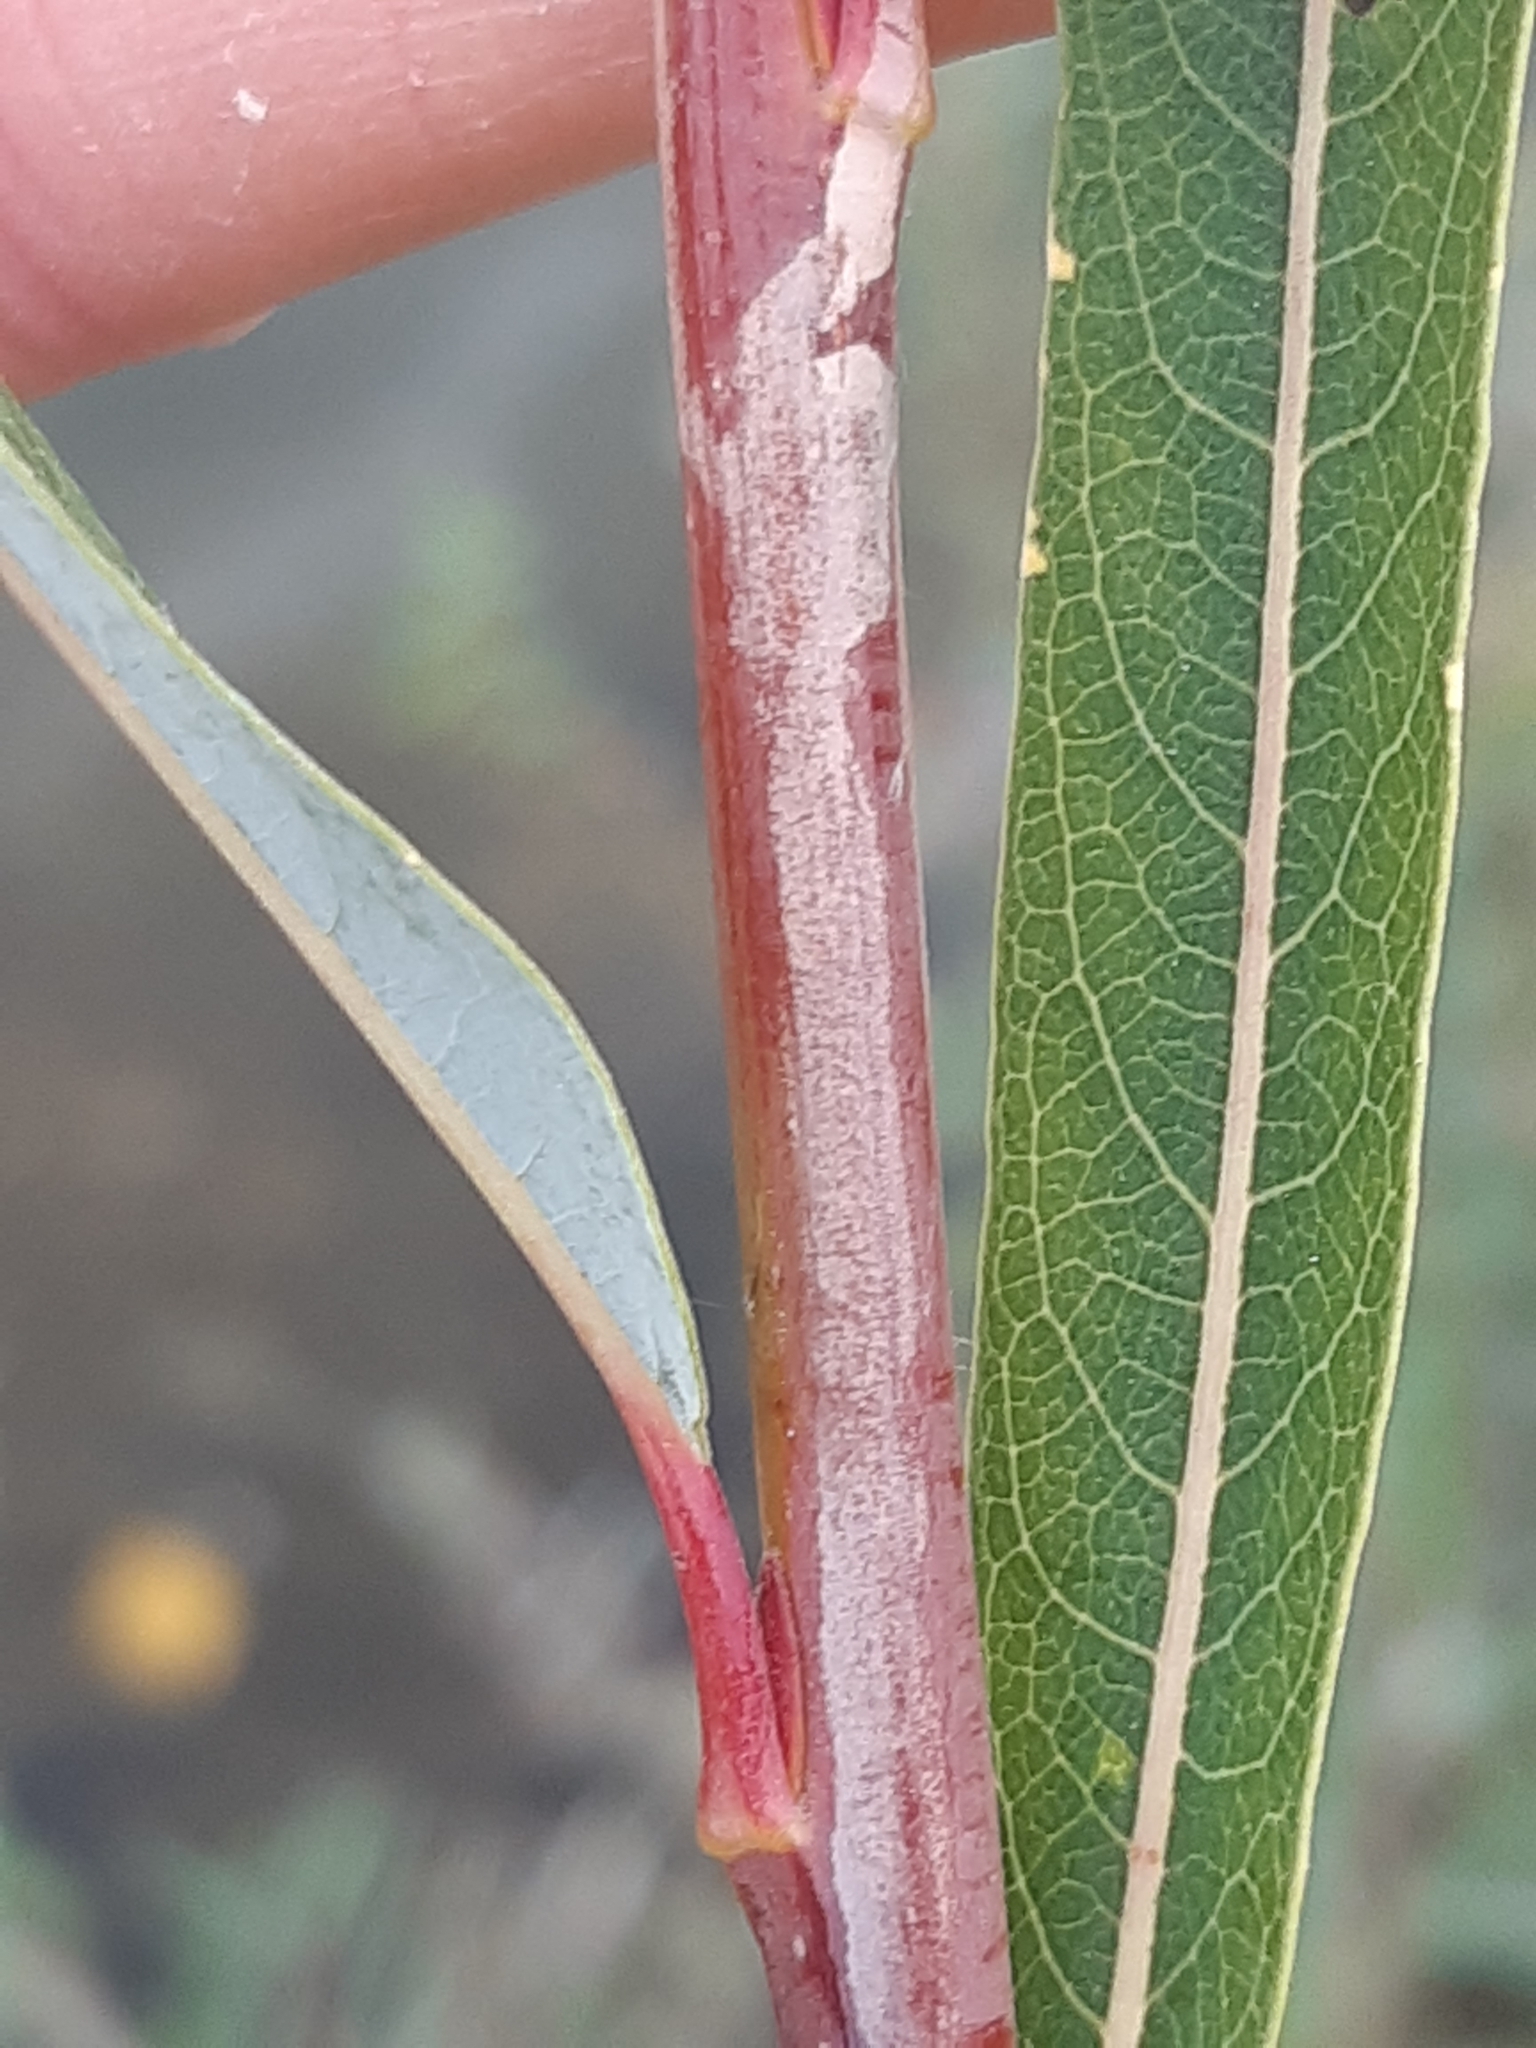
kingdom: Animalia
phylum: Arthropoda
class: Insecta
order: Lepidoptera
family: Gracillariidae
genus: Phyllocnistis
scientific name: Phyllocnistis saligna
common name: Willow bent-wing
